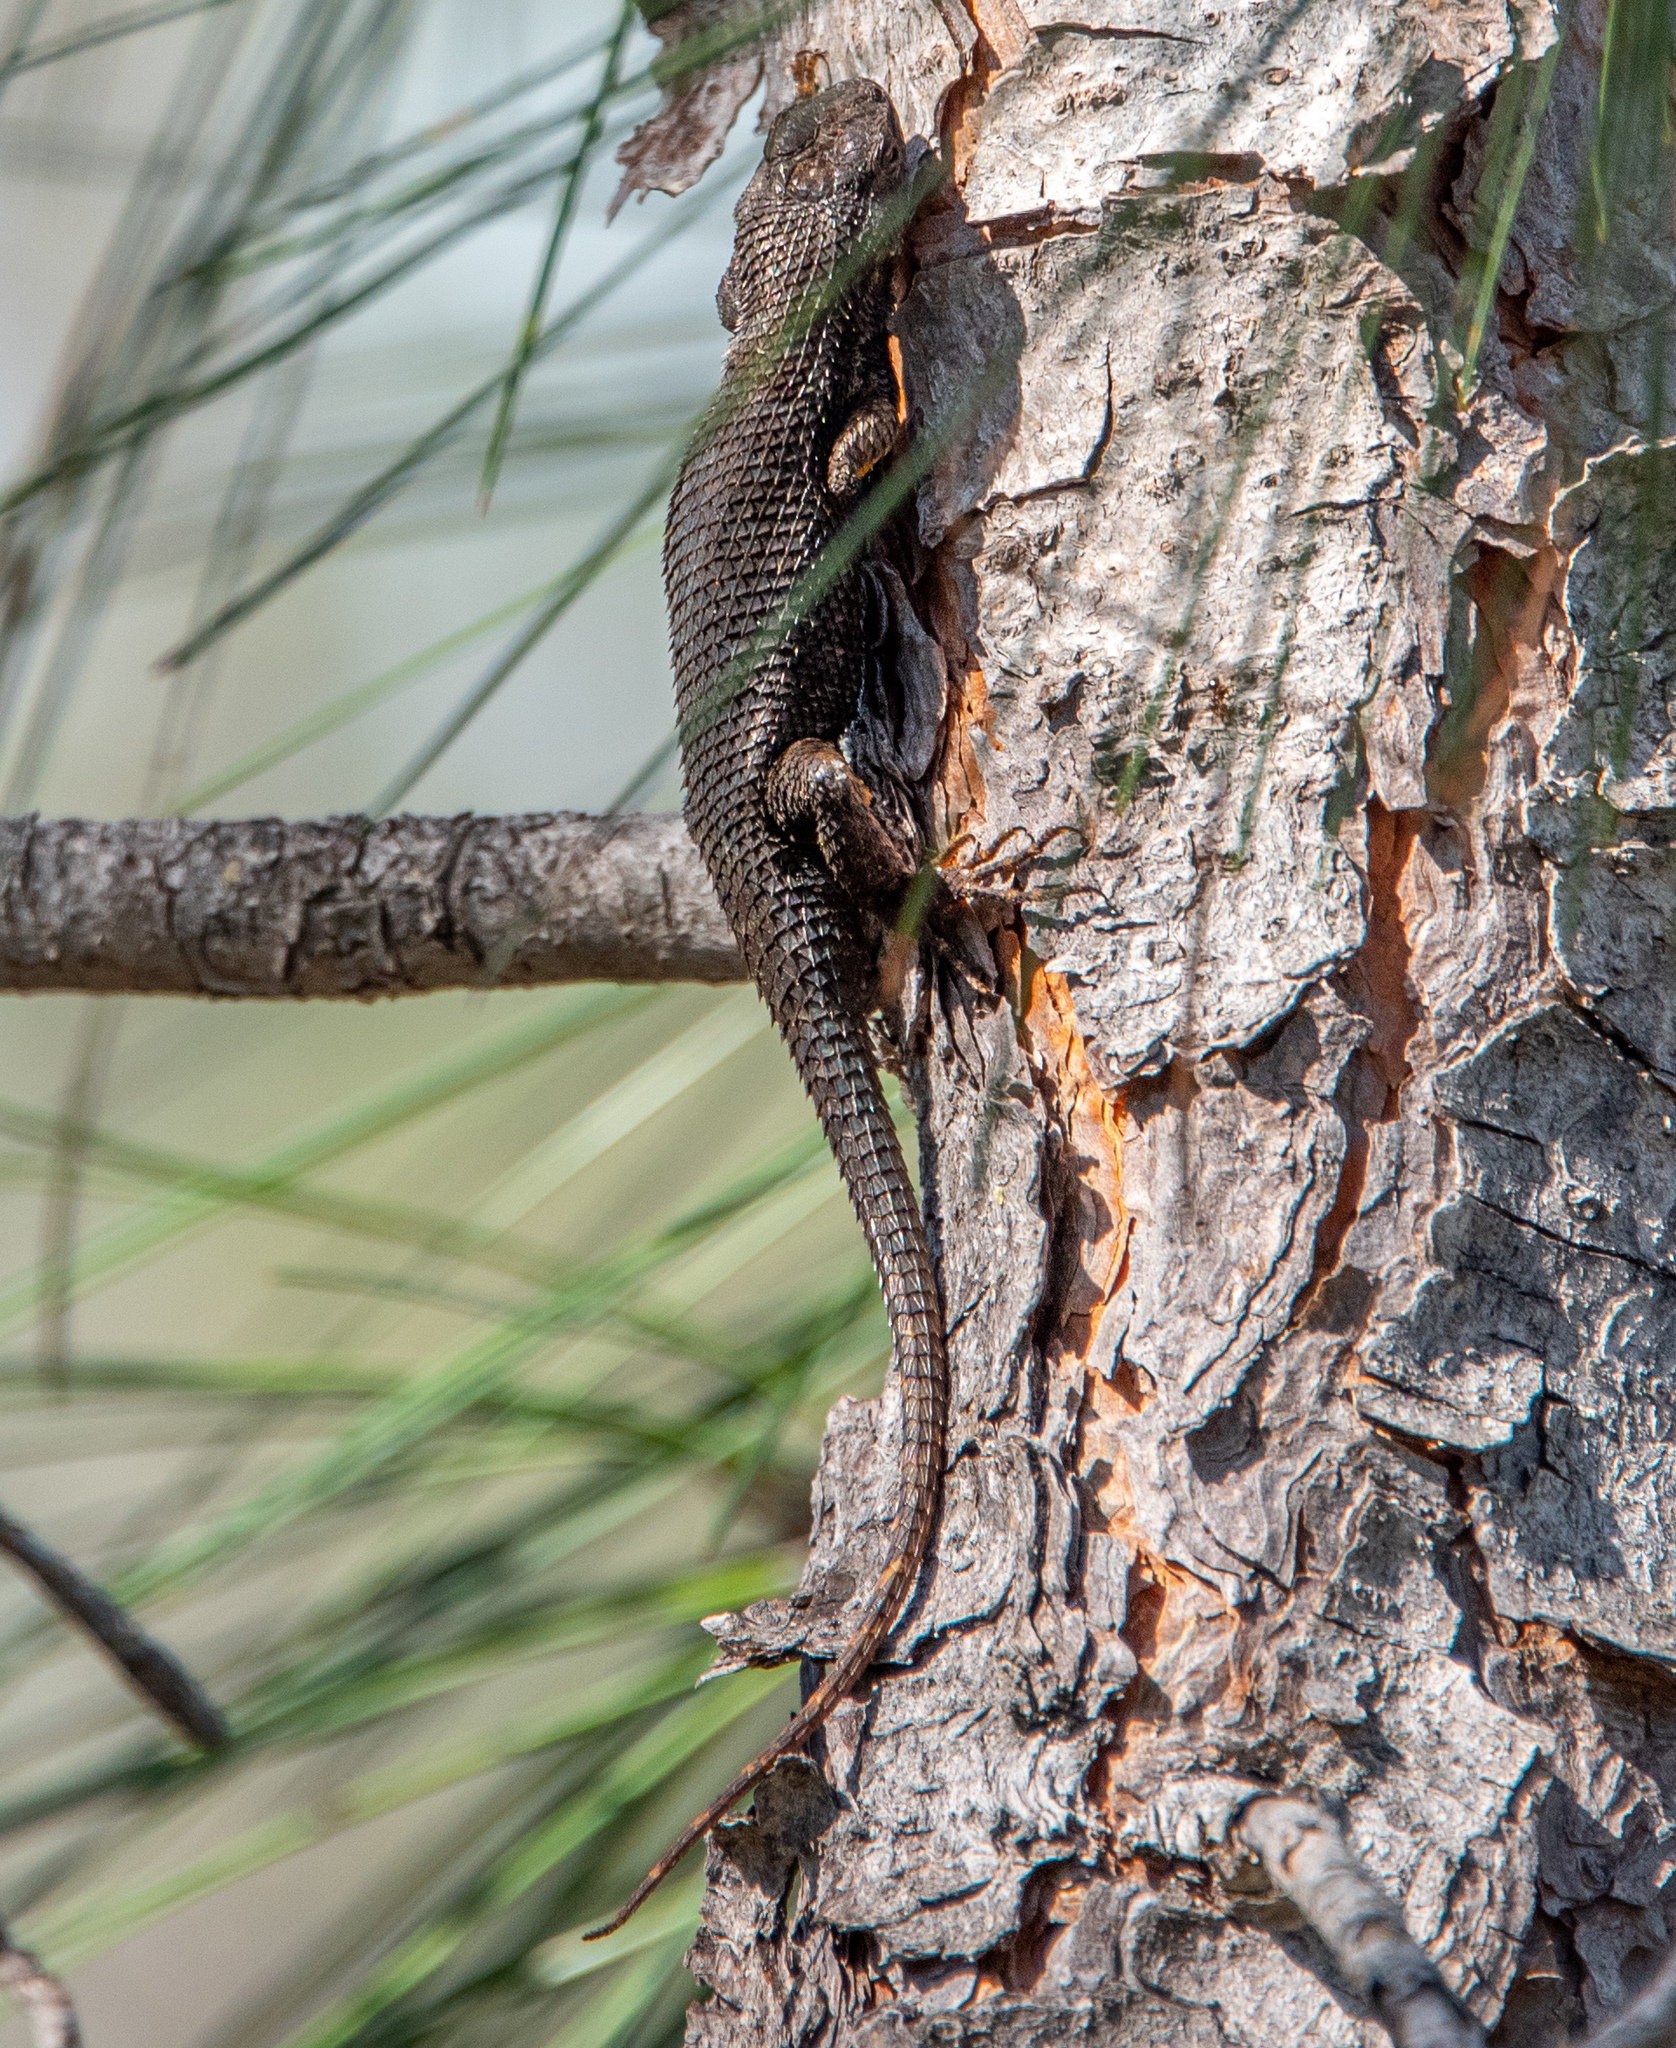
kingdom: Animalia
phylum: Chordata
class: Squamata
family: Phrynosomatidae
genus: Sceloporus
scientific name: Sceloporus occidentalis
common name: Western fence lizard
